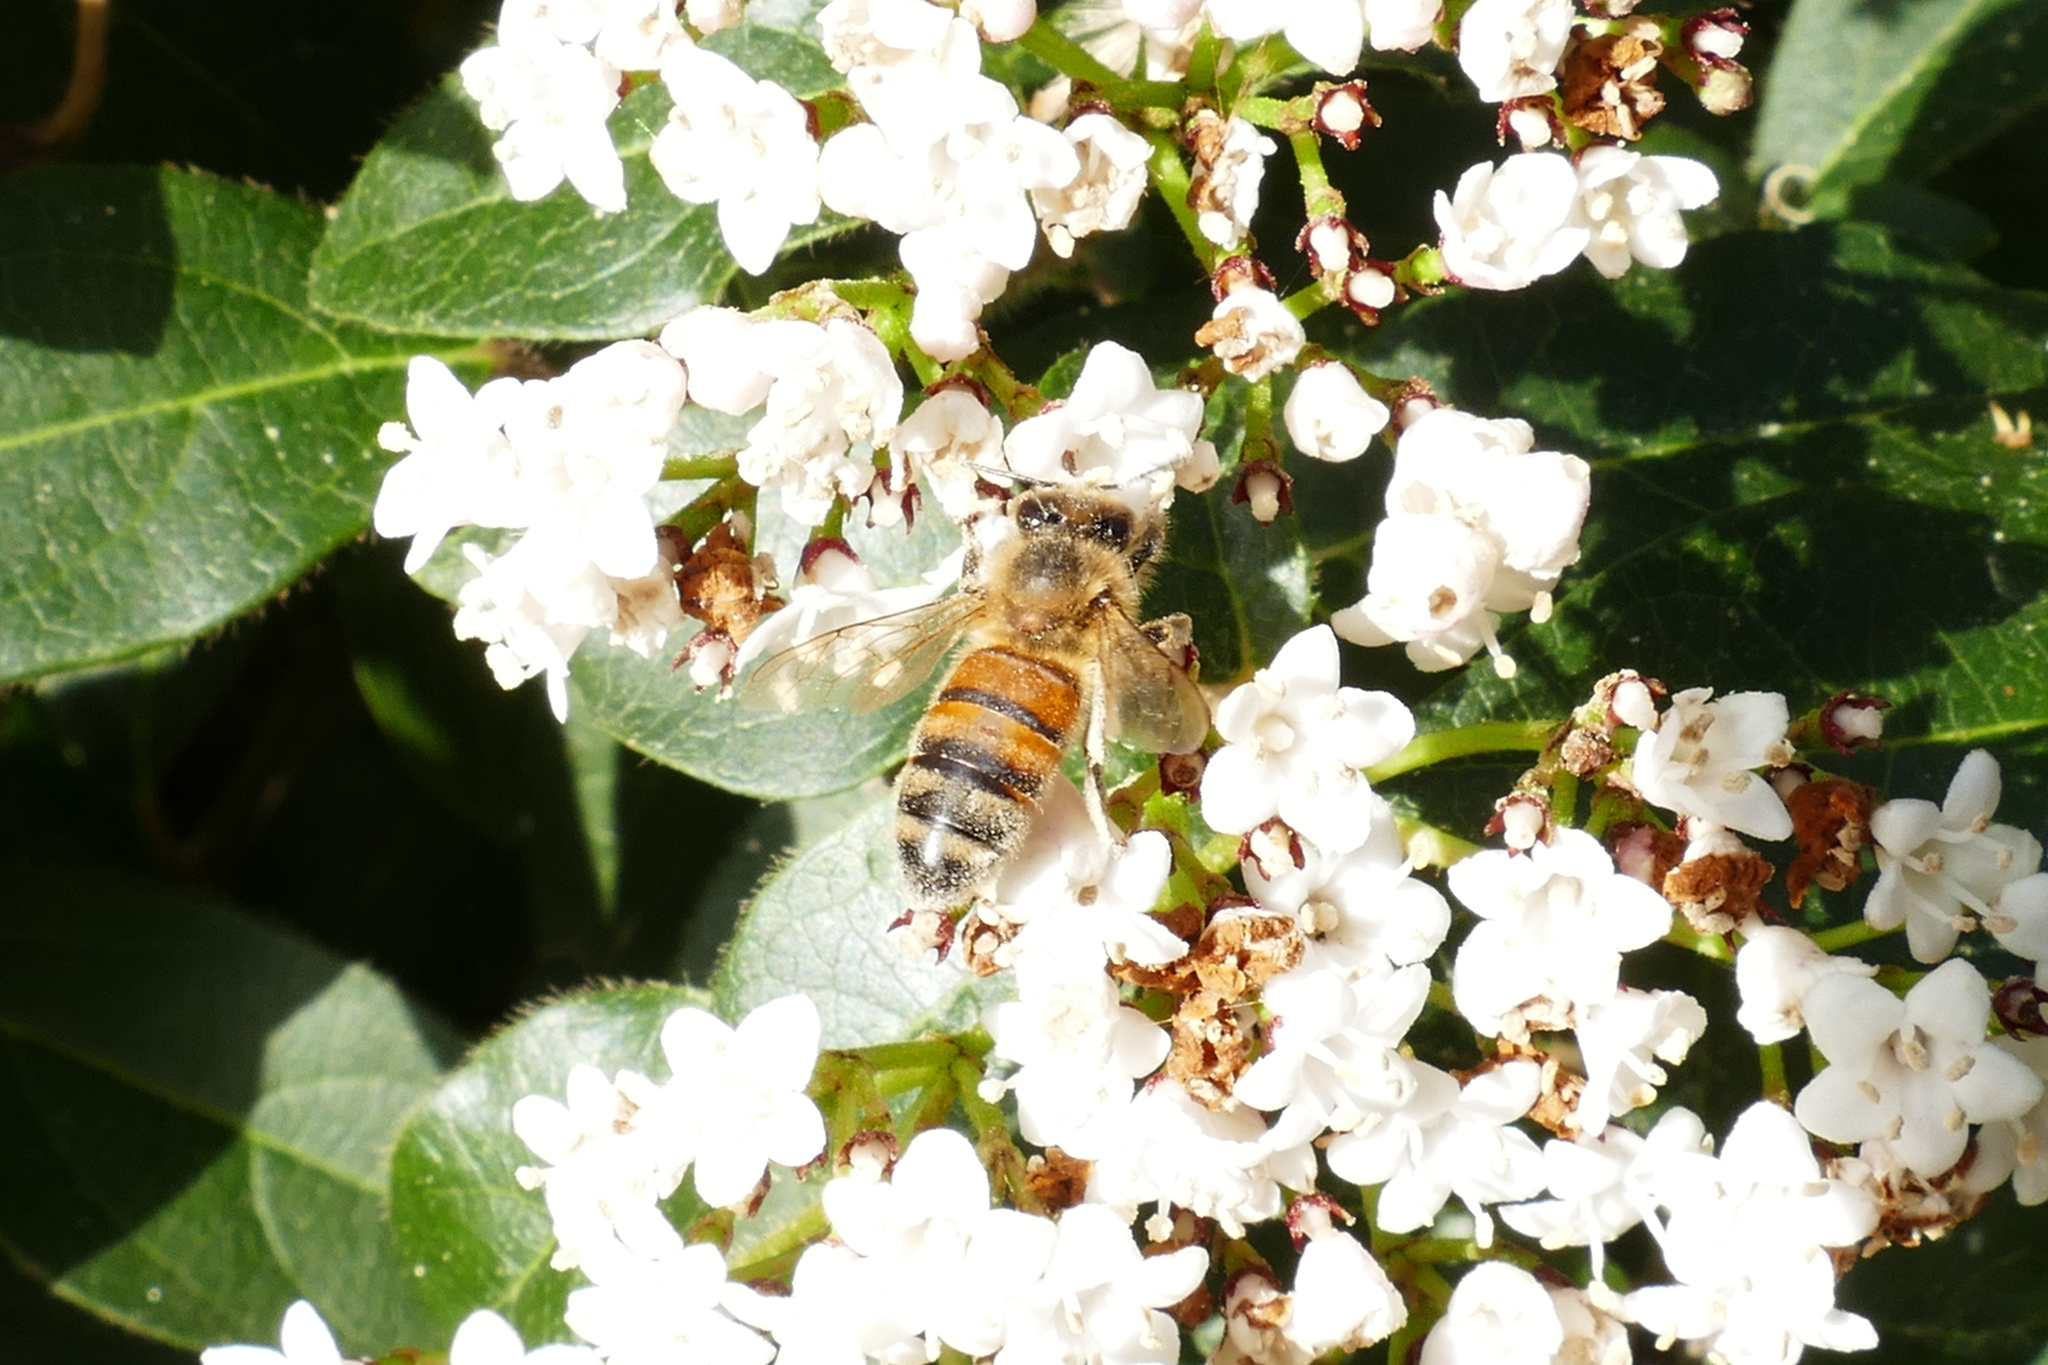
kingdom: Animalia
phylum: Arthropoda
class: Insecta
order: Hymenoptera
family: Apidae
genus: Apis
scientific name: Apis mellifera
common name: Honey bee
